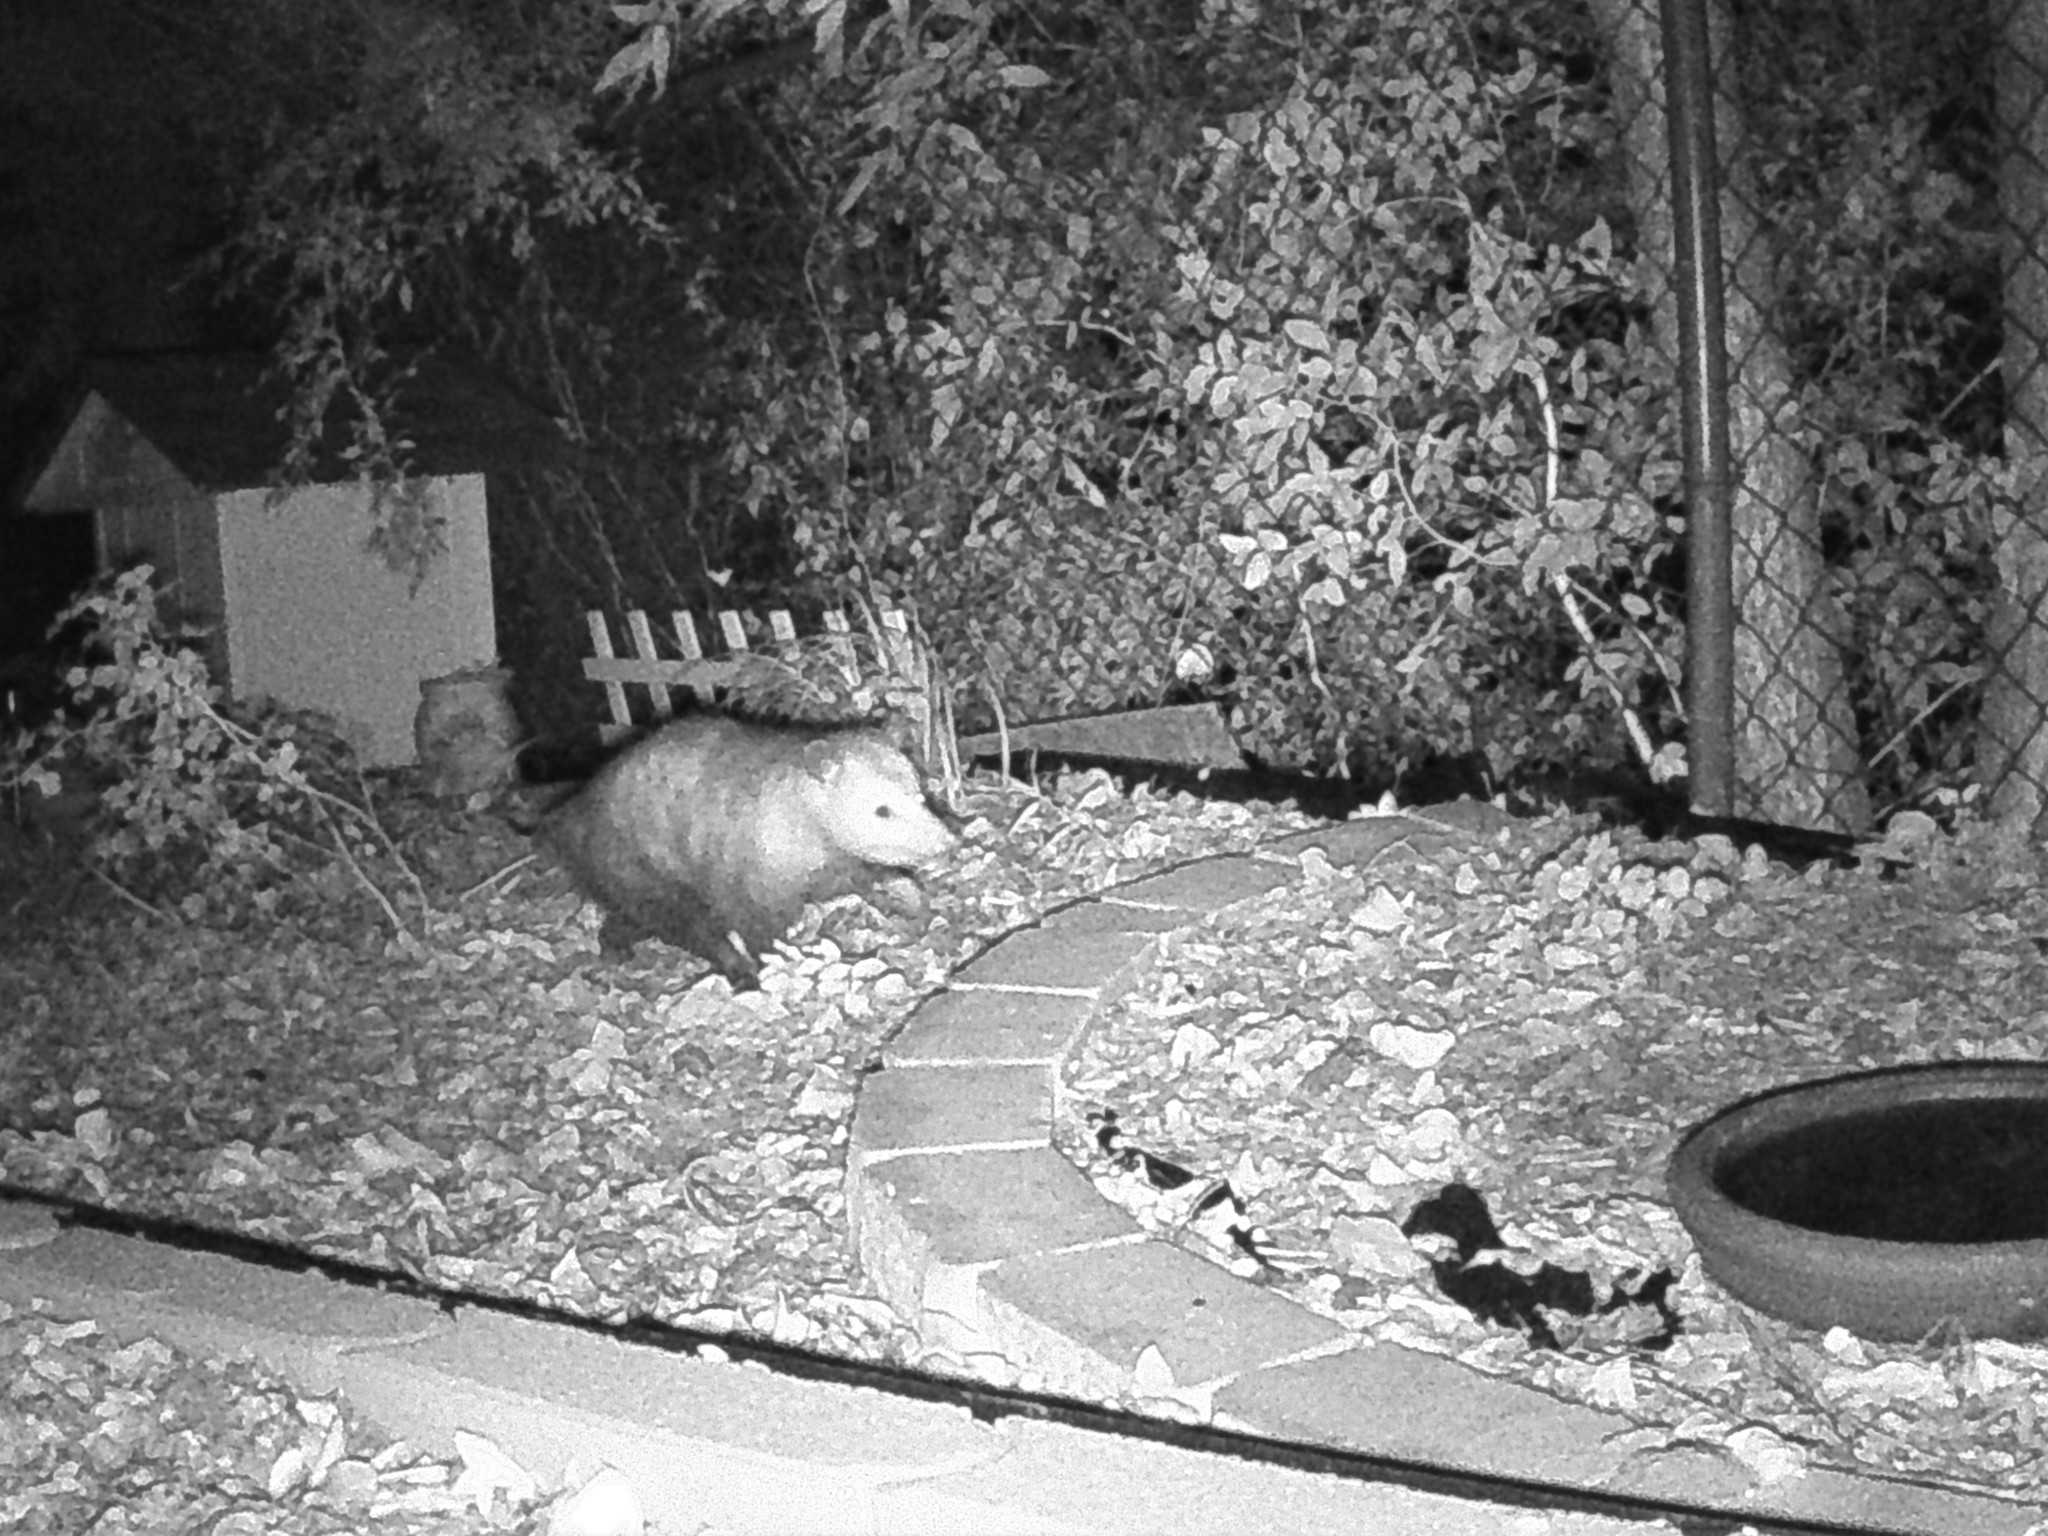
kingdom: Animalia
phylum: Chordata
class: Mammalia
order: Didelphimorphia
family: Didelphidae
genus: Didelphis
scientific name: Didelphis virginiana
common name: Virginia opossum
